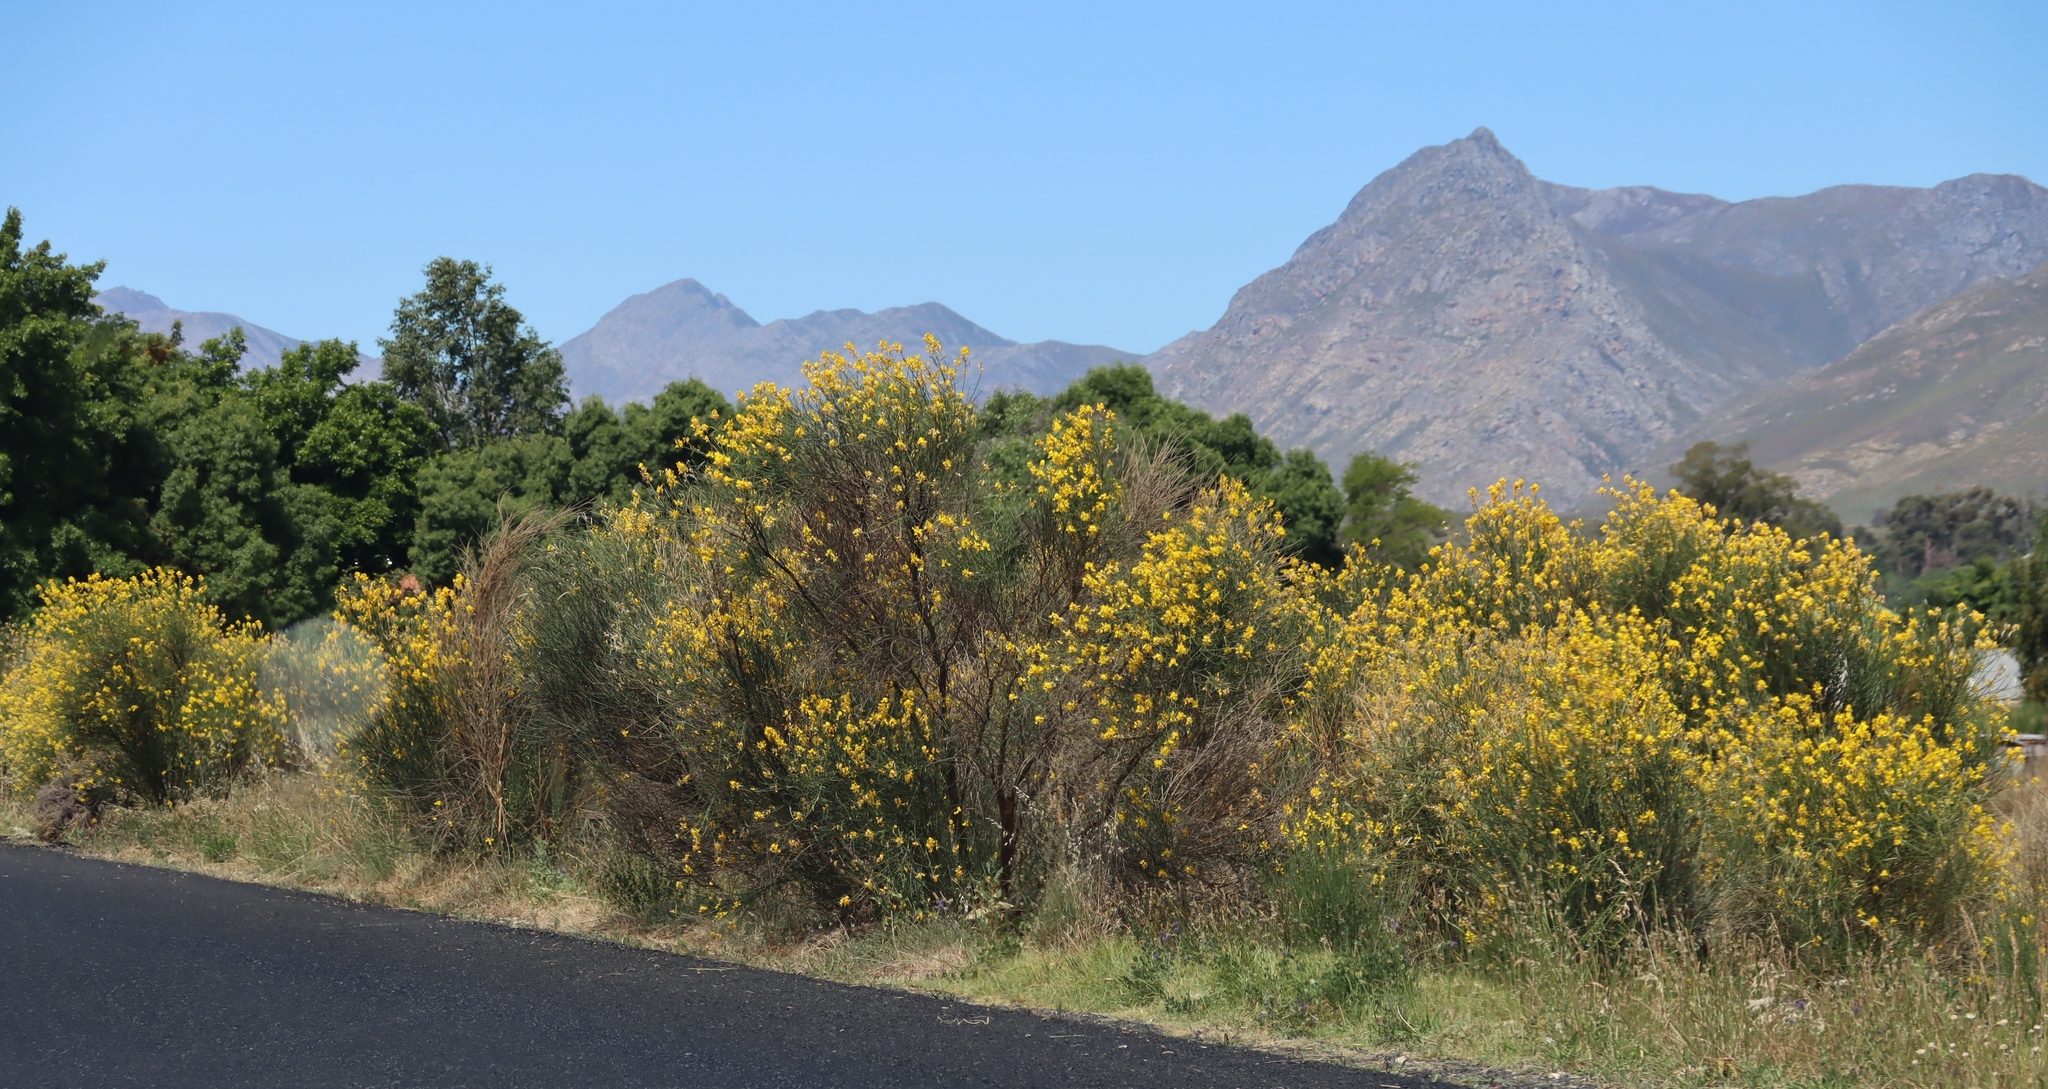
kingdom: Plantae
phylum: Tracheophyta
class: Magnoliopsida
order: Fabales
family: Fabaceae
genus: Spartium
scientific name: Spartium junceum
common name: Spanish broom
